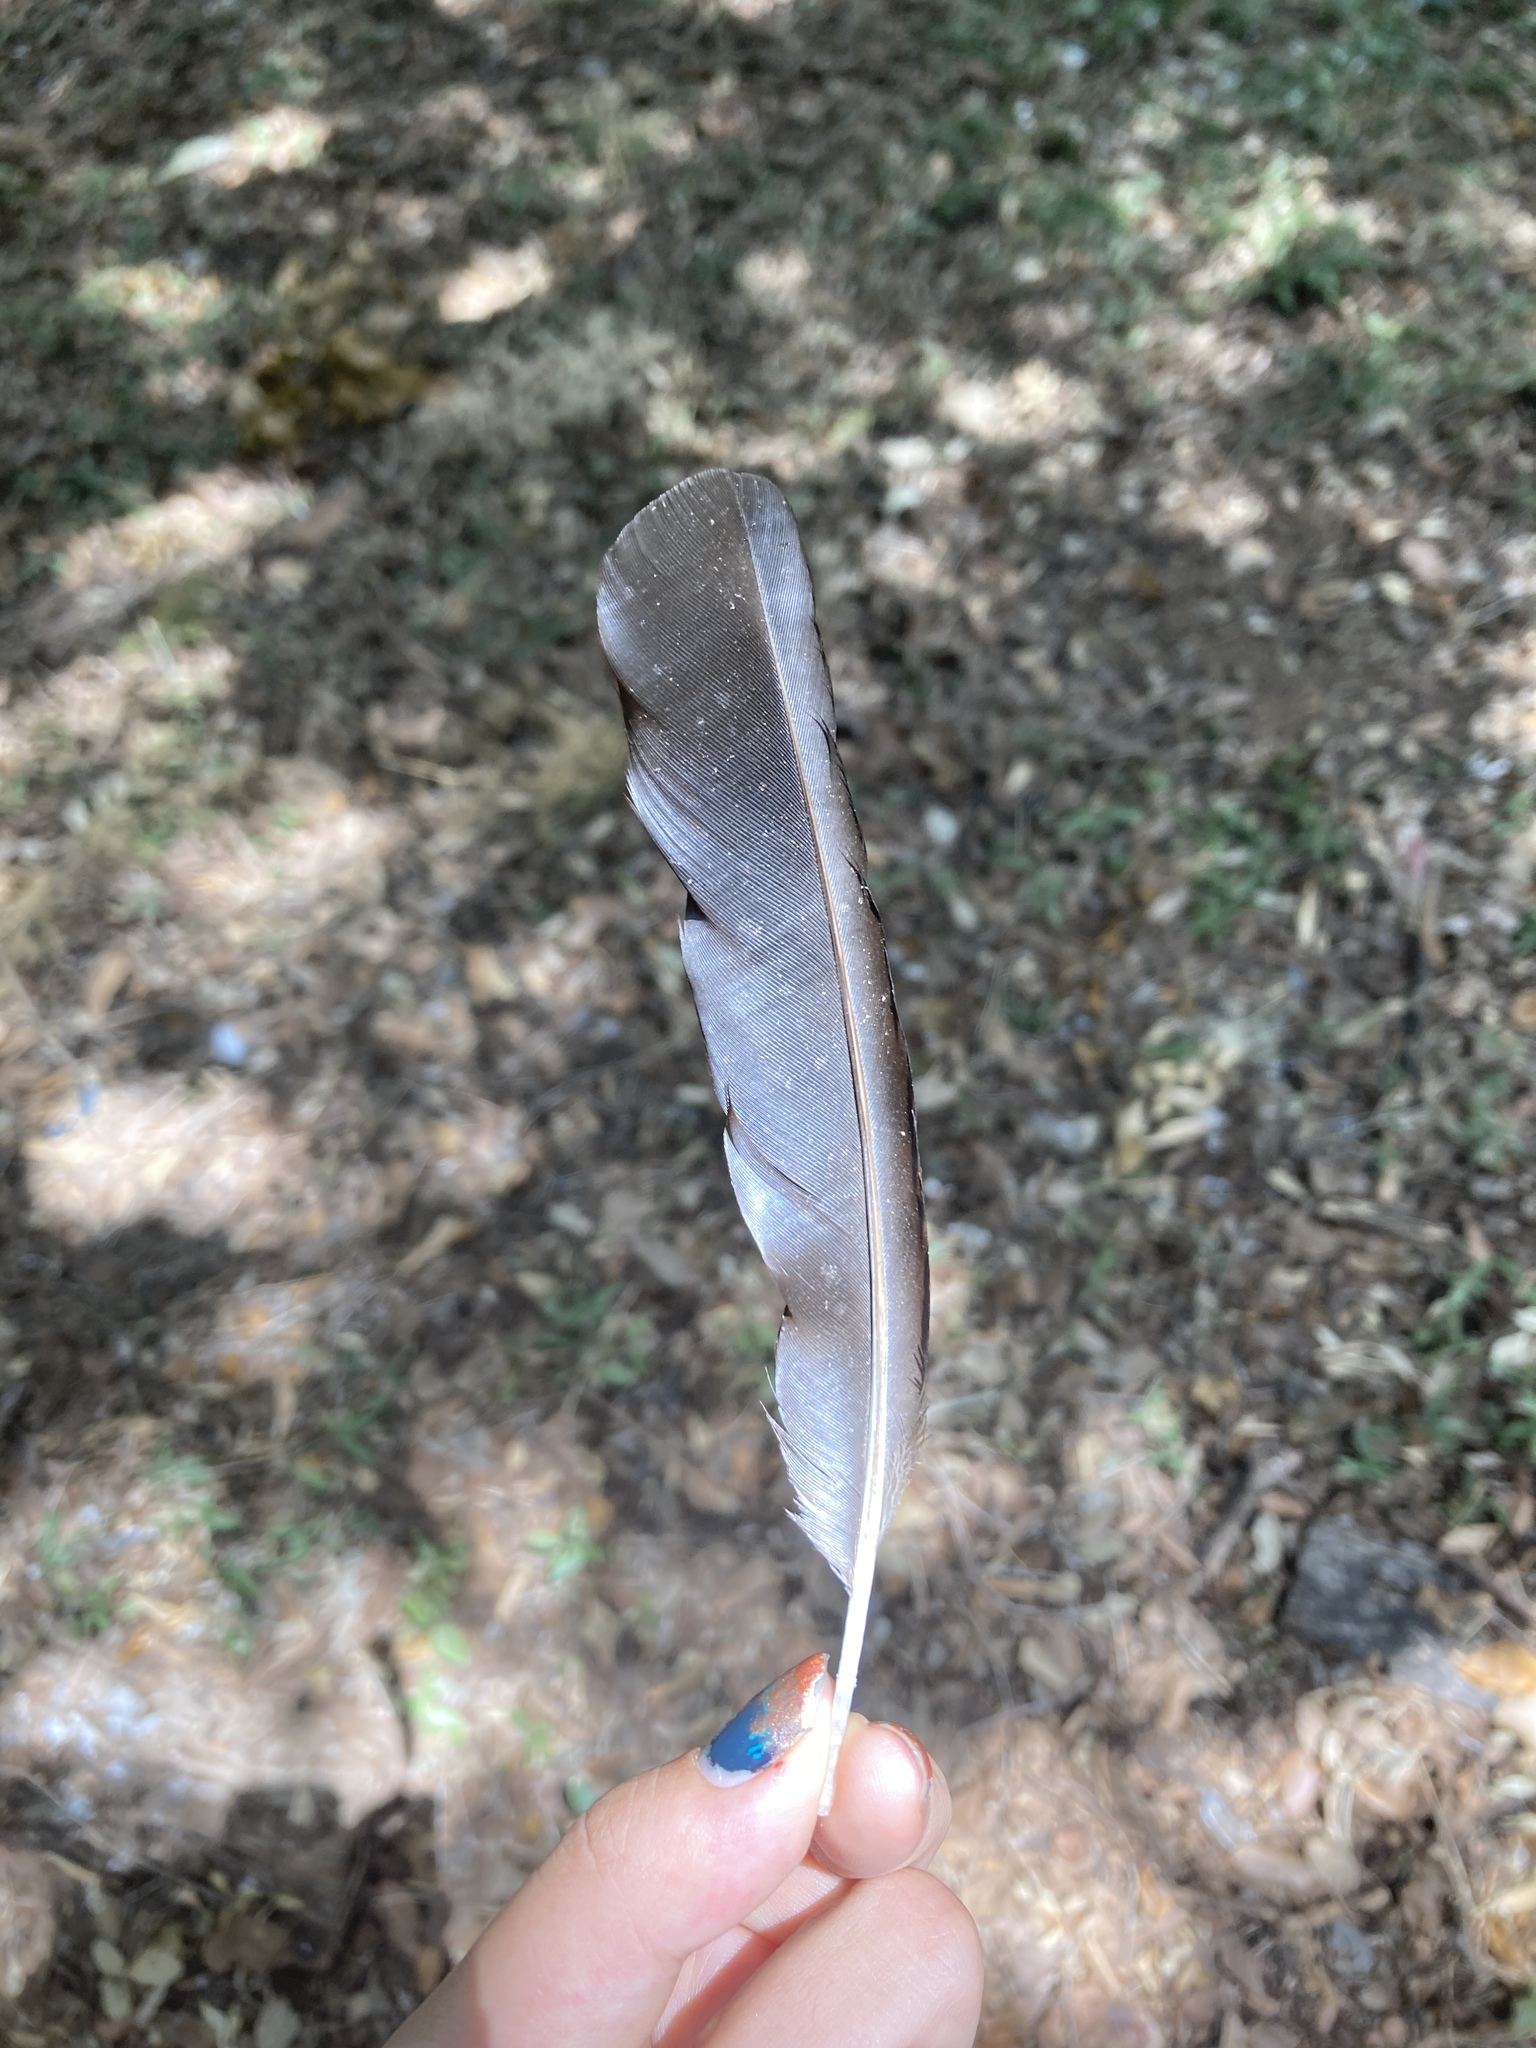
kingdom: Animalia
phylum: Chordata
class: Aves
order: Passeriformes
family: Corvidae
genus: Pica
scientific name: Pica pica
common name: Eurasian magpie
